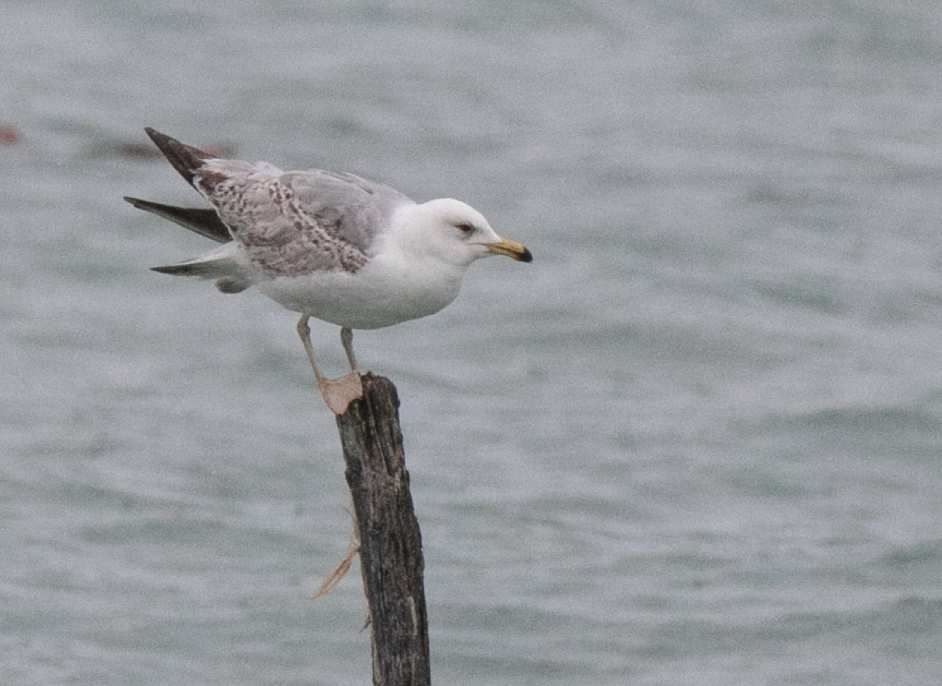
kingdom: Animalia
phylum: Chordata
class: Aves
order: Charadriiformes
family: Laridae
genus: Larus
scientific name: Larus michahellis
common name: Yellow-legged gull
